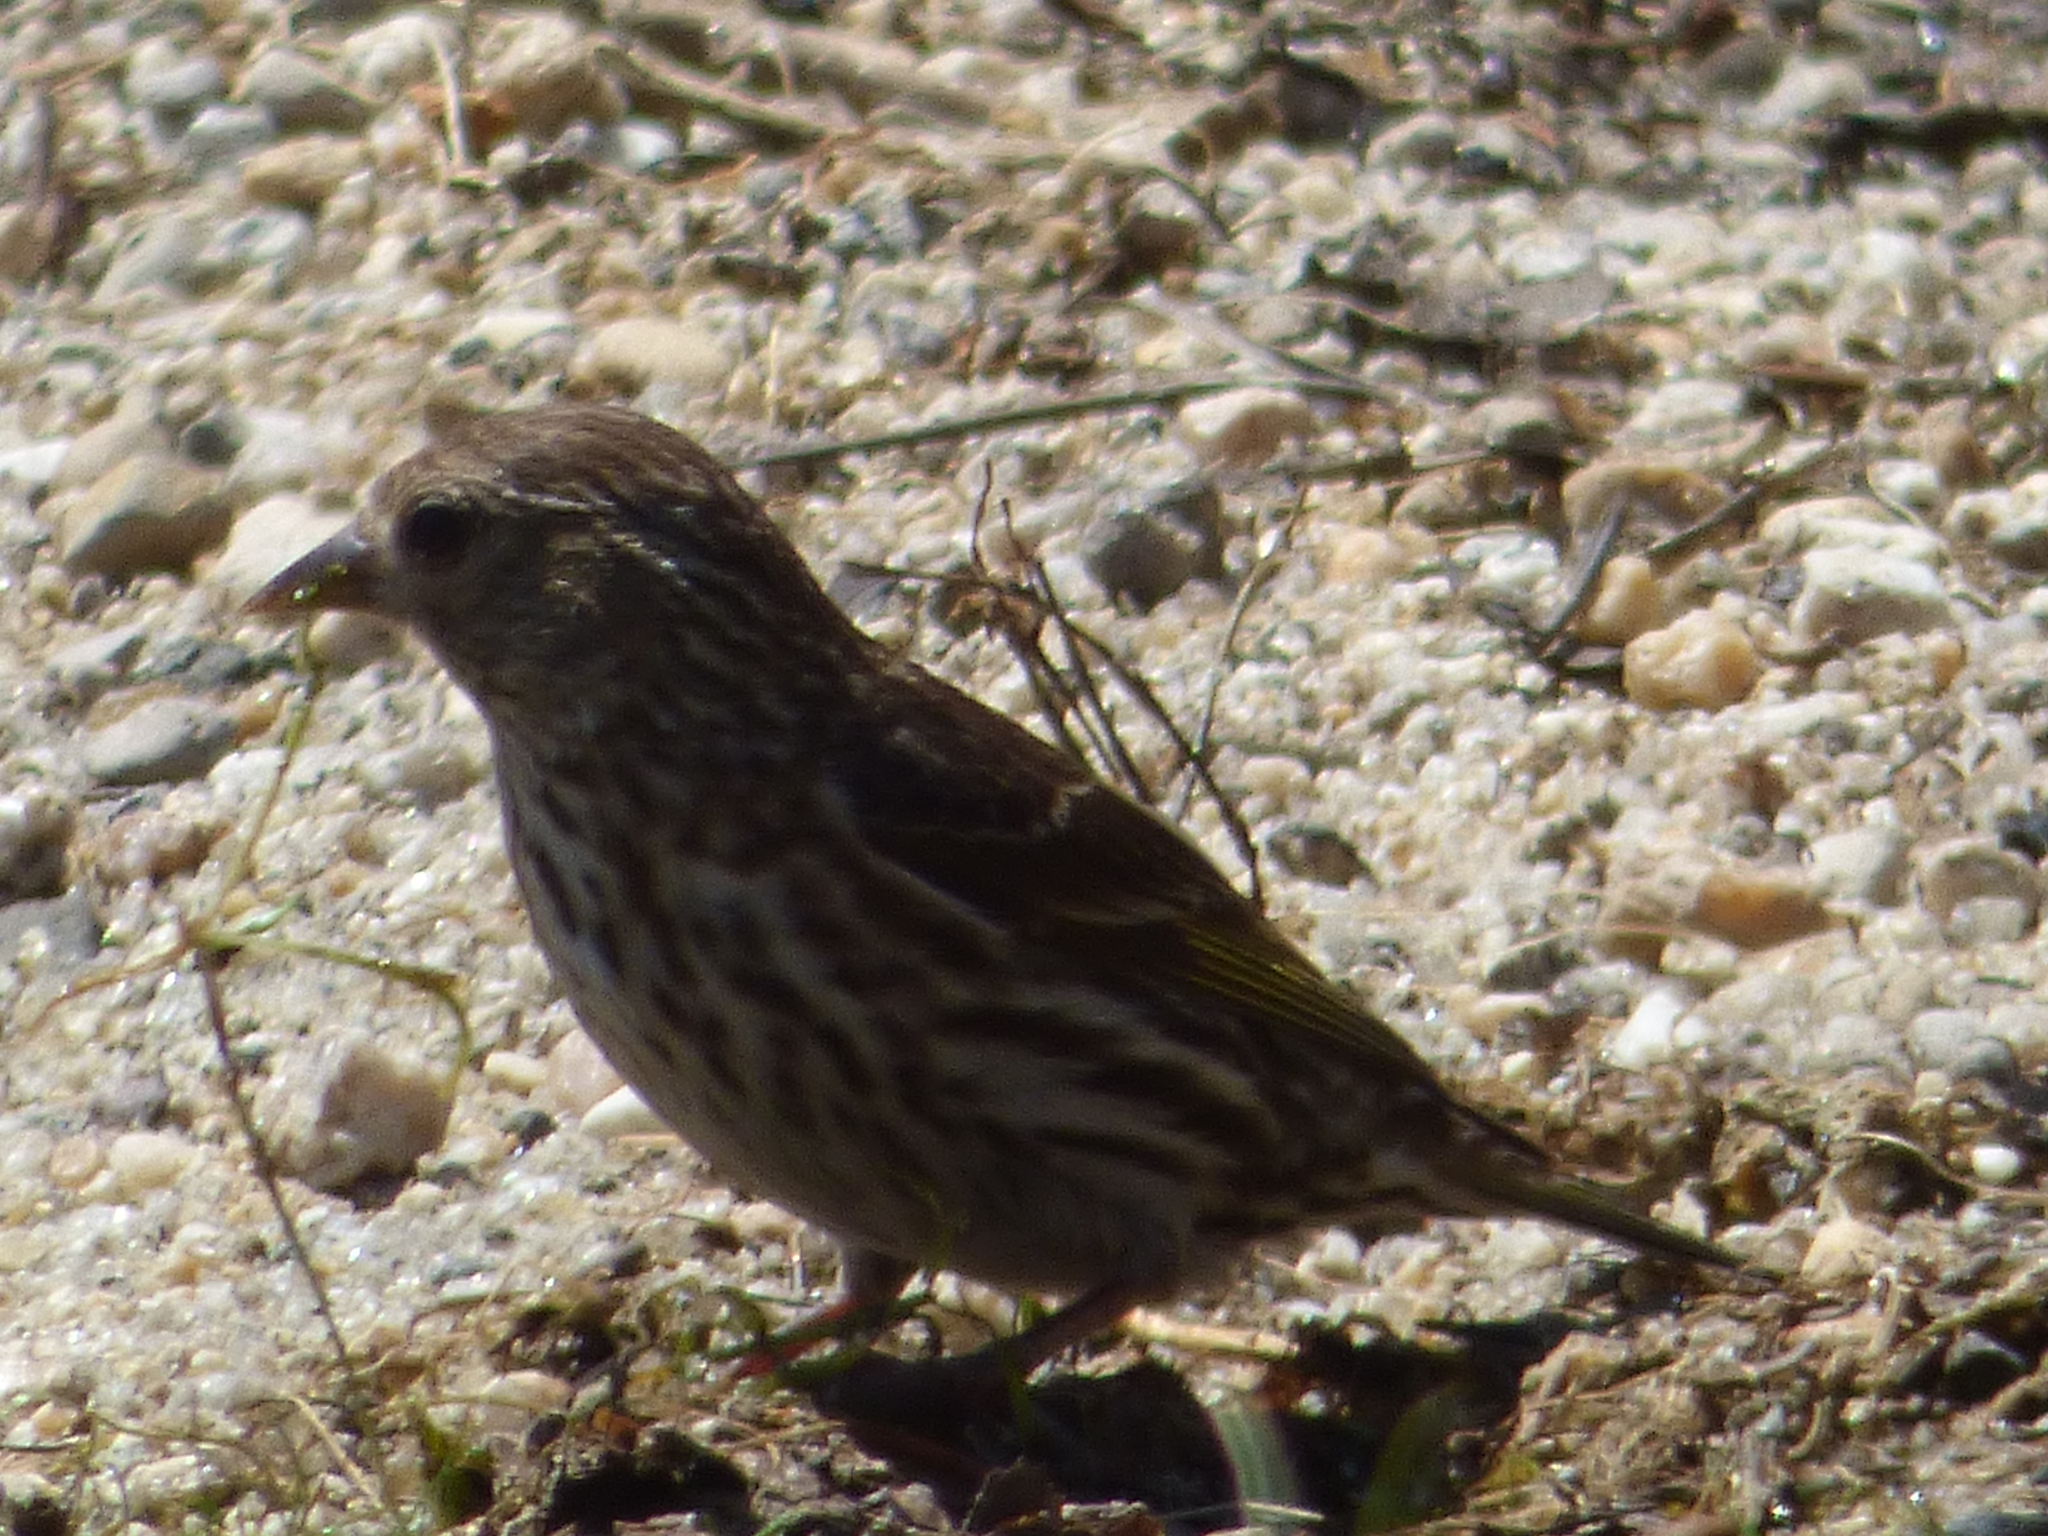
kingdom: Animalia
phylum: Chordata
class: Aves
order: Passeriformes
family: Fringillidae
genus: Spinus
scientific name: Spinus pinus
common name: Pine siskin
